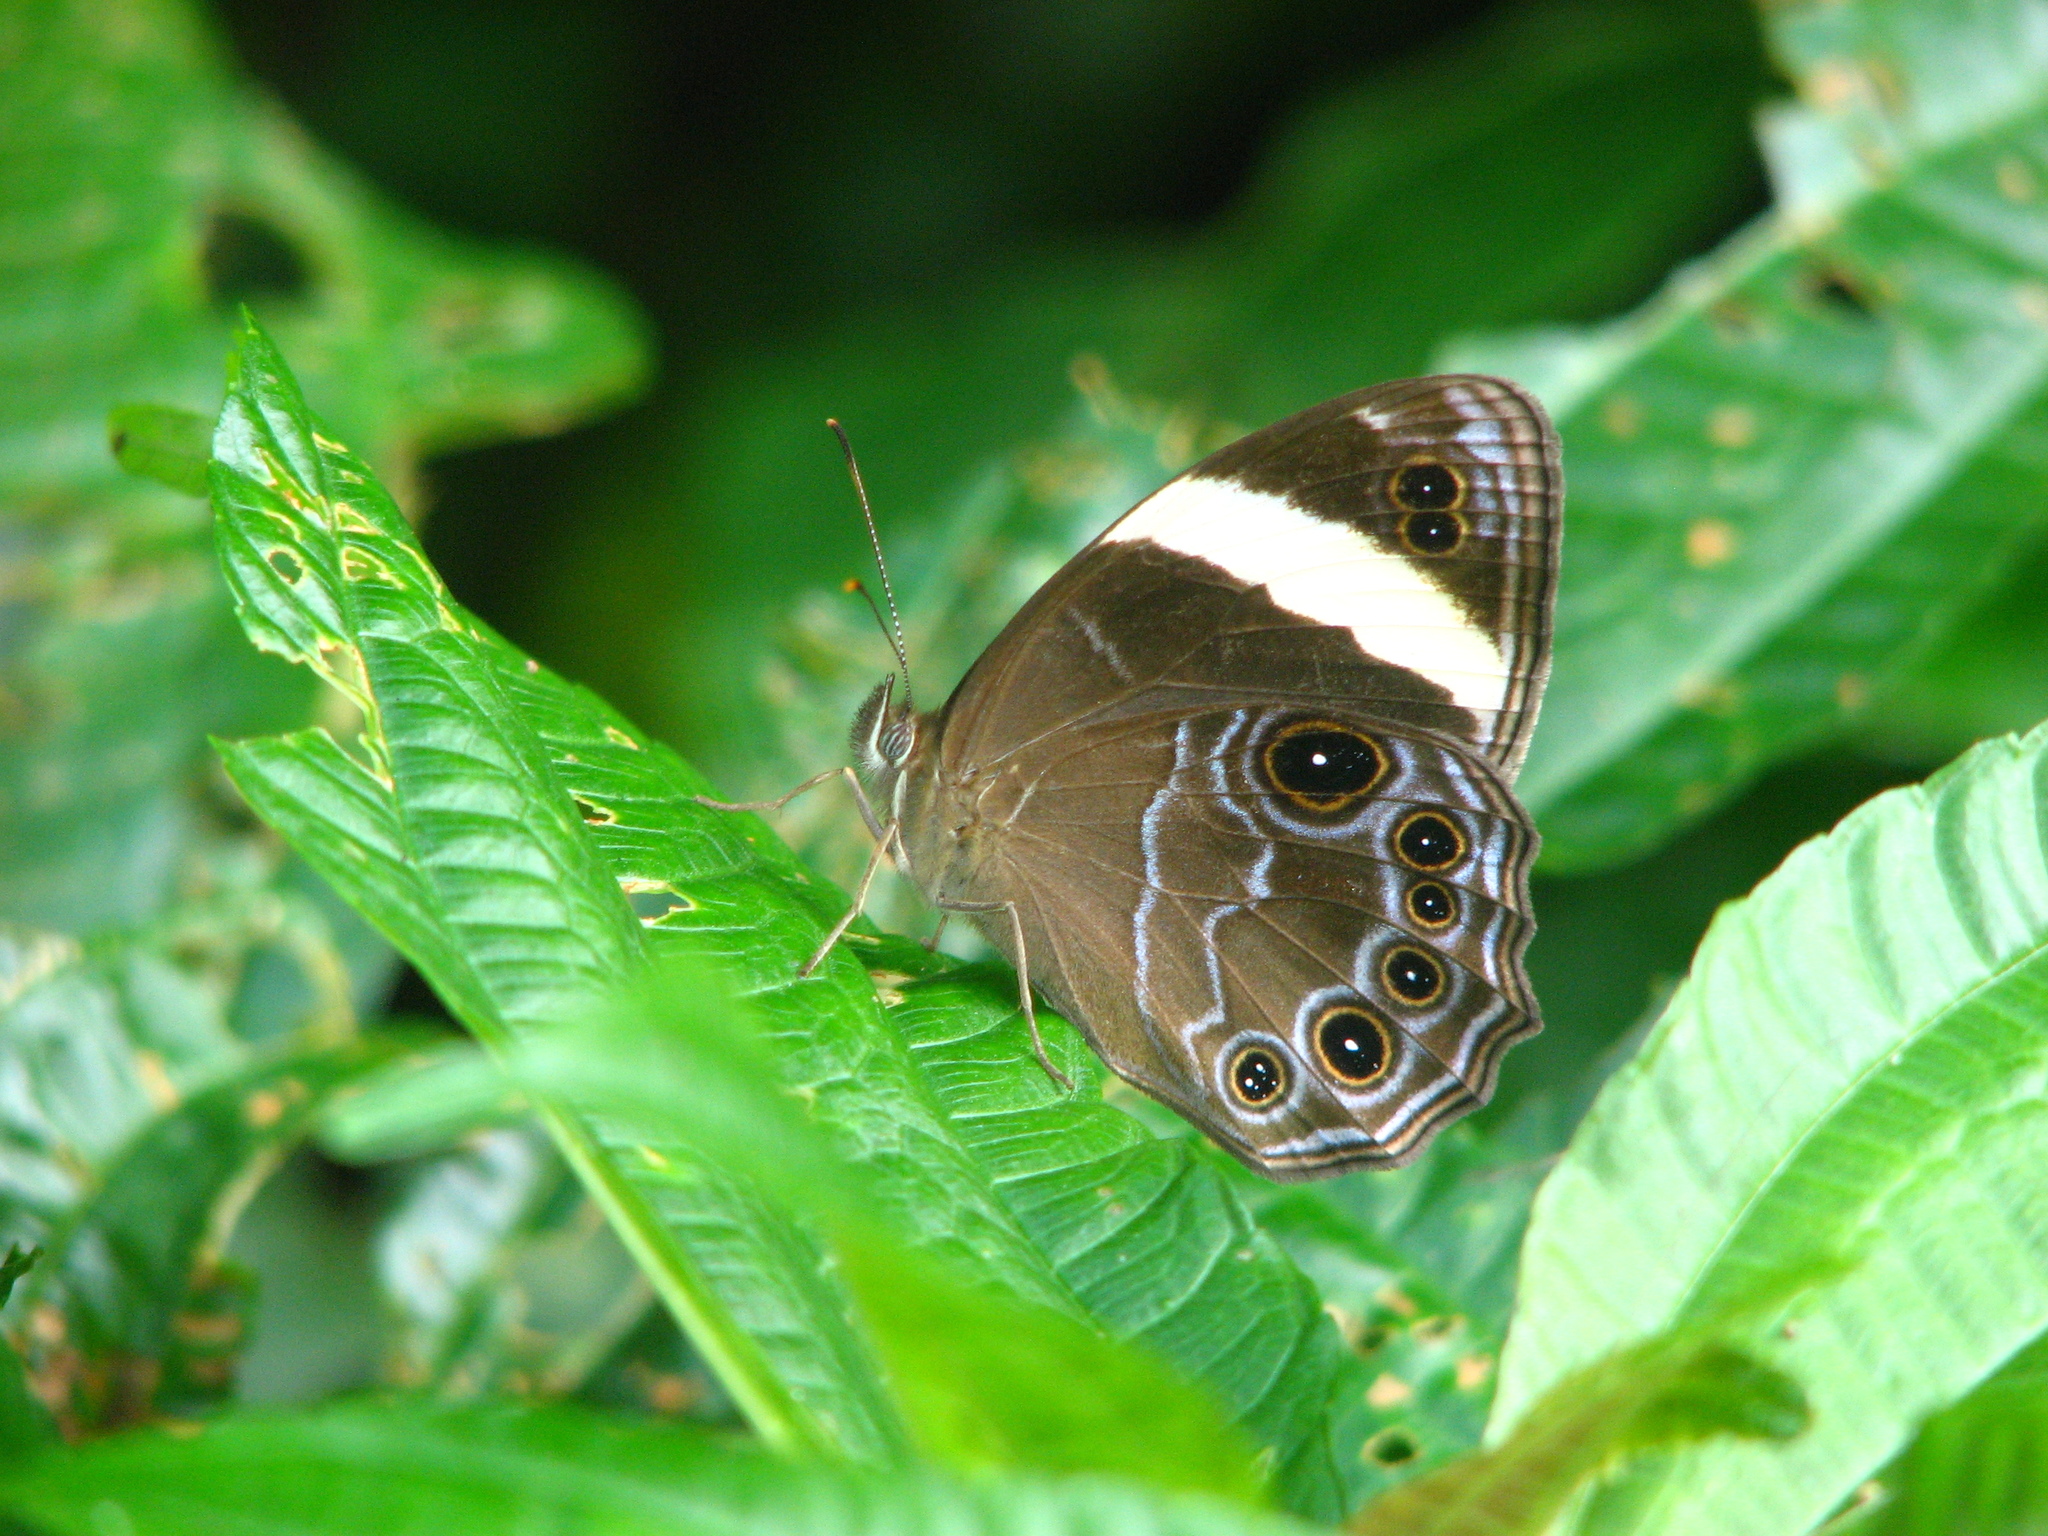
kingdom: Animalia
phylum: Arthropoda
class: Insecta
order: Lepidoptera
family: Nymphalidae
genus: Lethe
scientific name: Lethe verma
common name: Straight-banded treebrown
